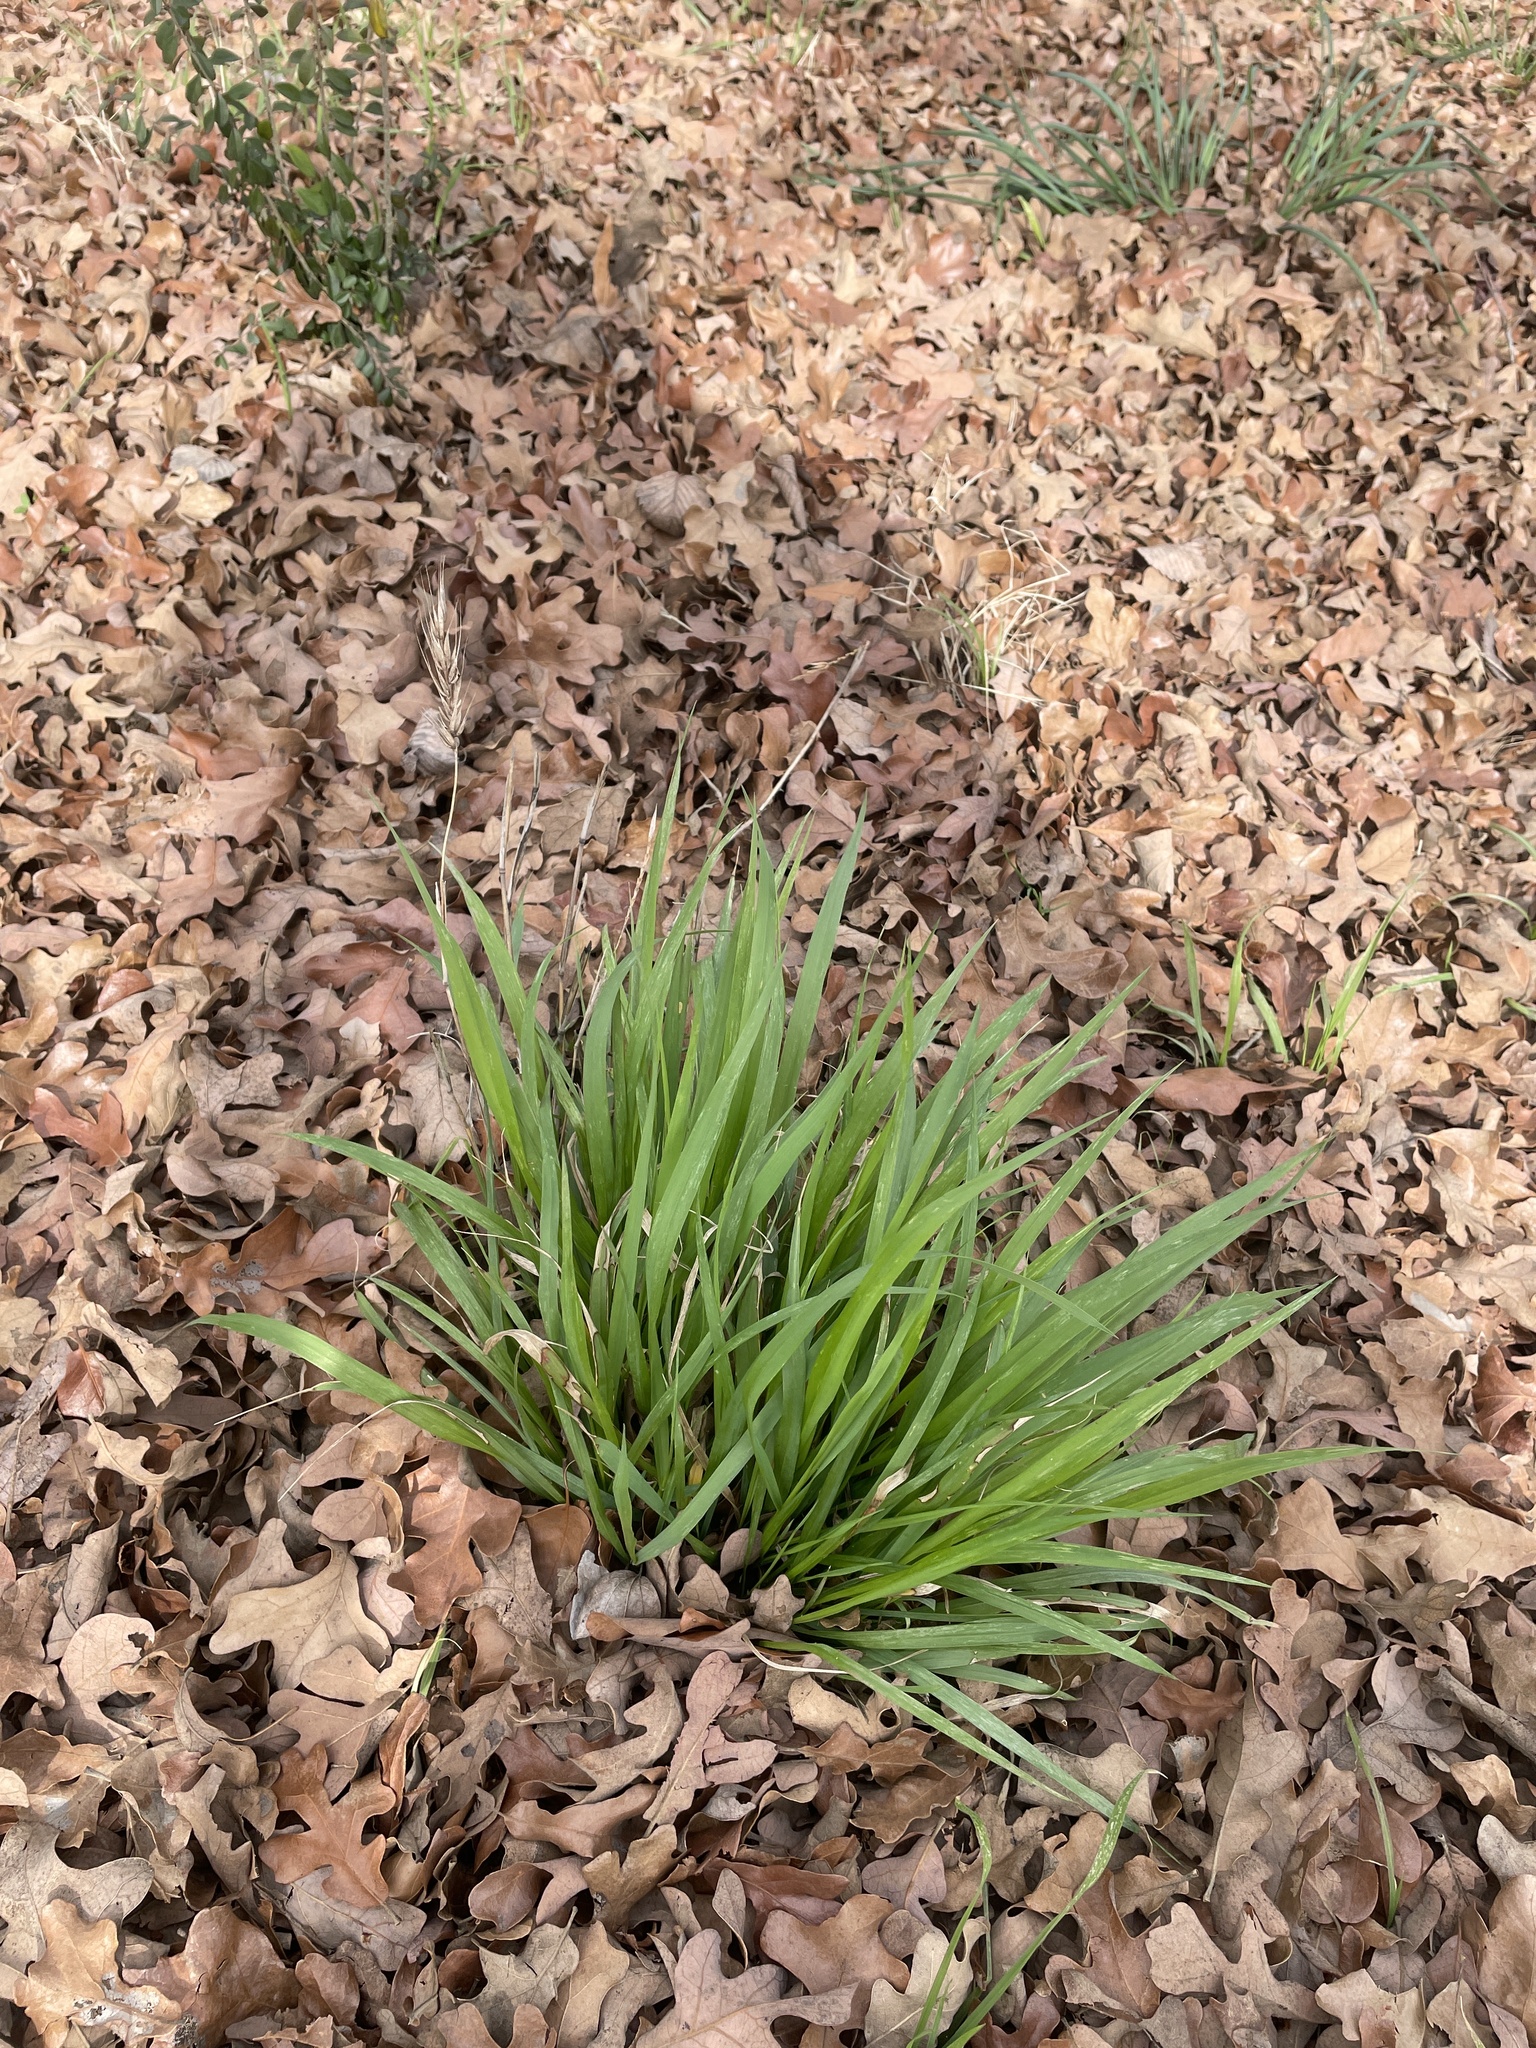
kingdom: Plantae
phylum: Tracheophyta
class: Liliopsida
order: Poales
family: Poaceae
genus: Elymus
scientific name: Elymus virginicus
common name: Common eastern wildrye
